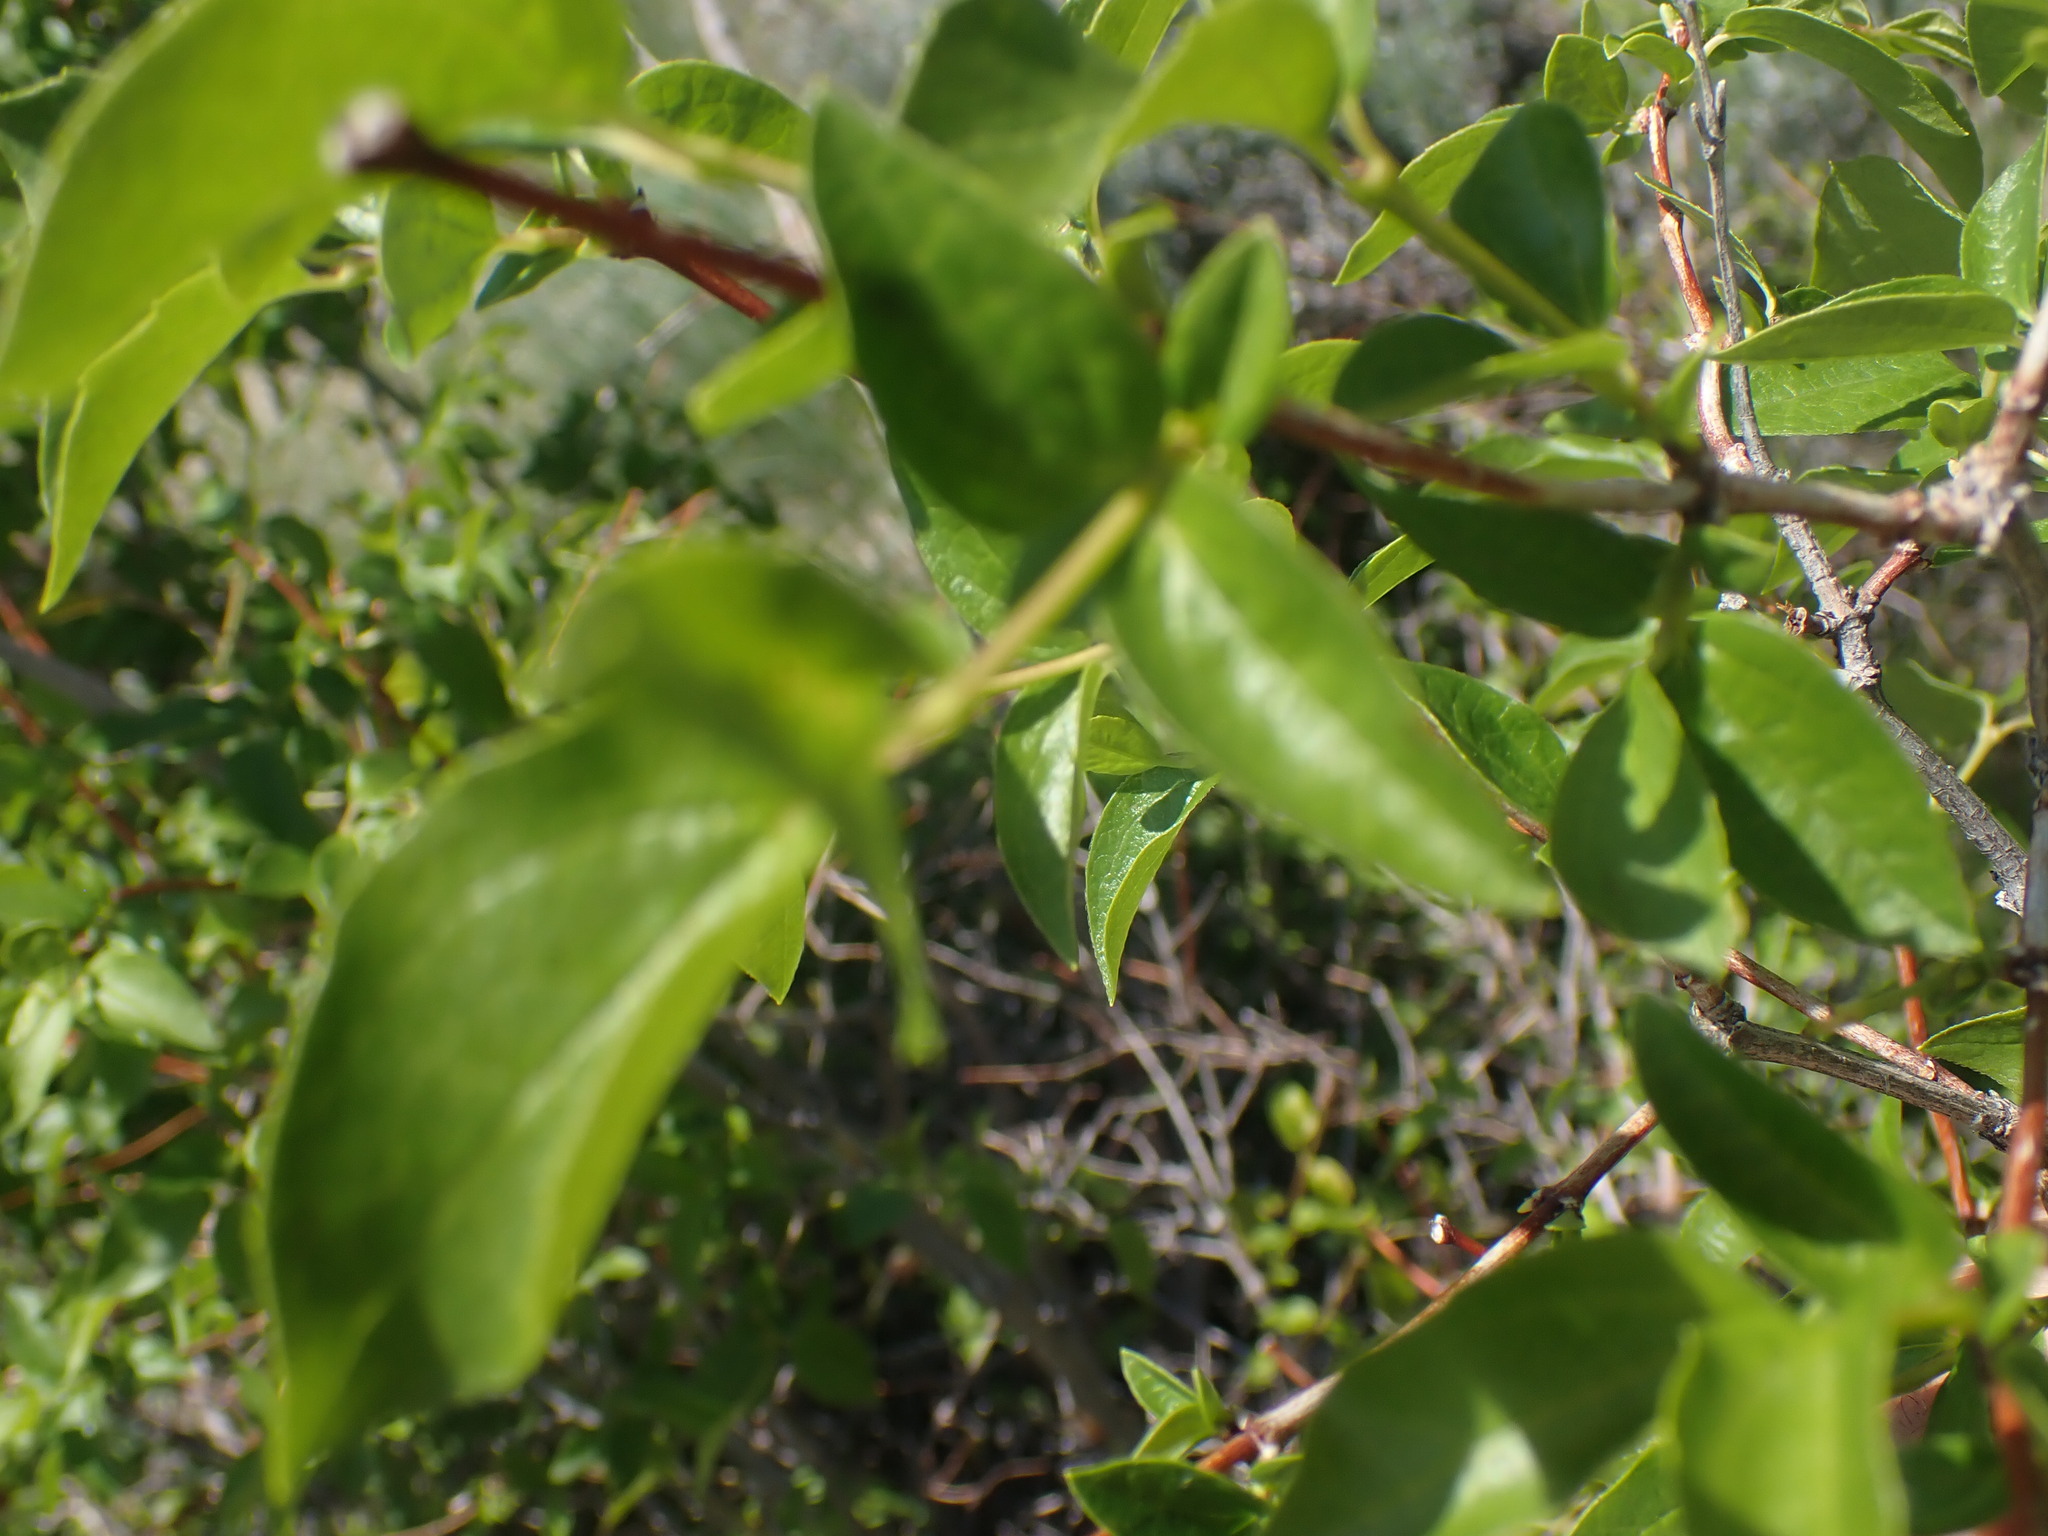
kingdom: Plantae
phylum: Tracheophyta
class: Magnoliopsida
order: Cornales
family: Hydrangeaceae
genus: Philadelphus
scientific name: Philadelphus lewisii
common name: Lewis's mock orange
